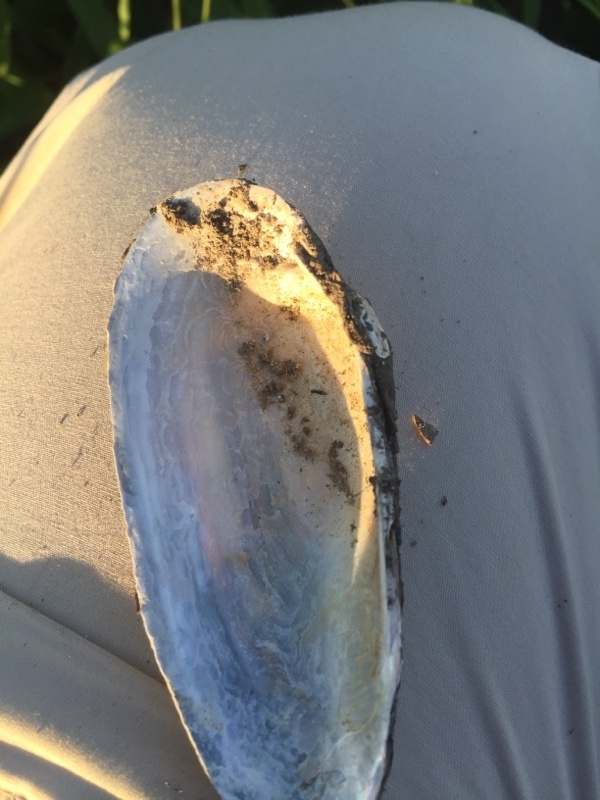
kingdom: Animalia
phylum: Mollusca
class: Bivalvia
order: Unionida
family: Unionidae
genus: Unio
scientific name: Unio pictorum
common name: Painter's mussel
